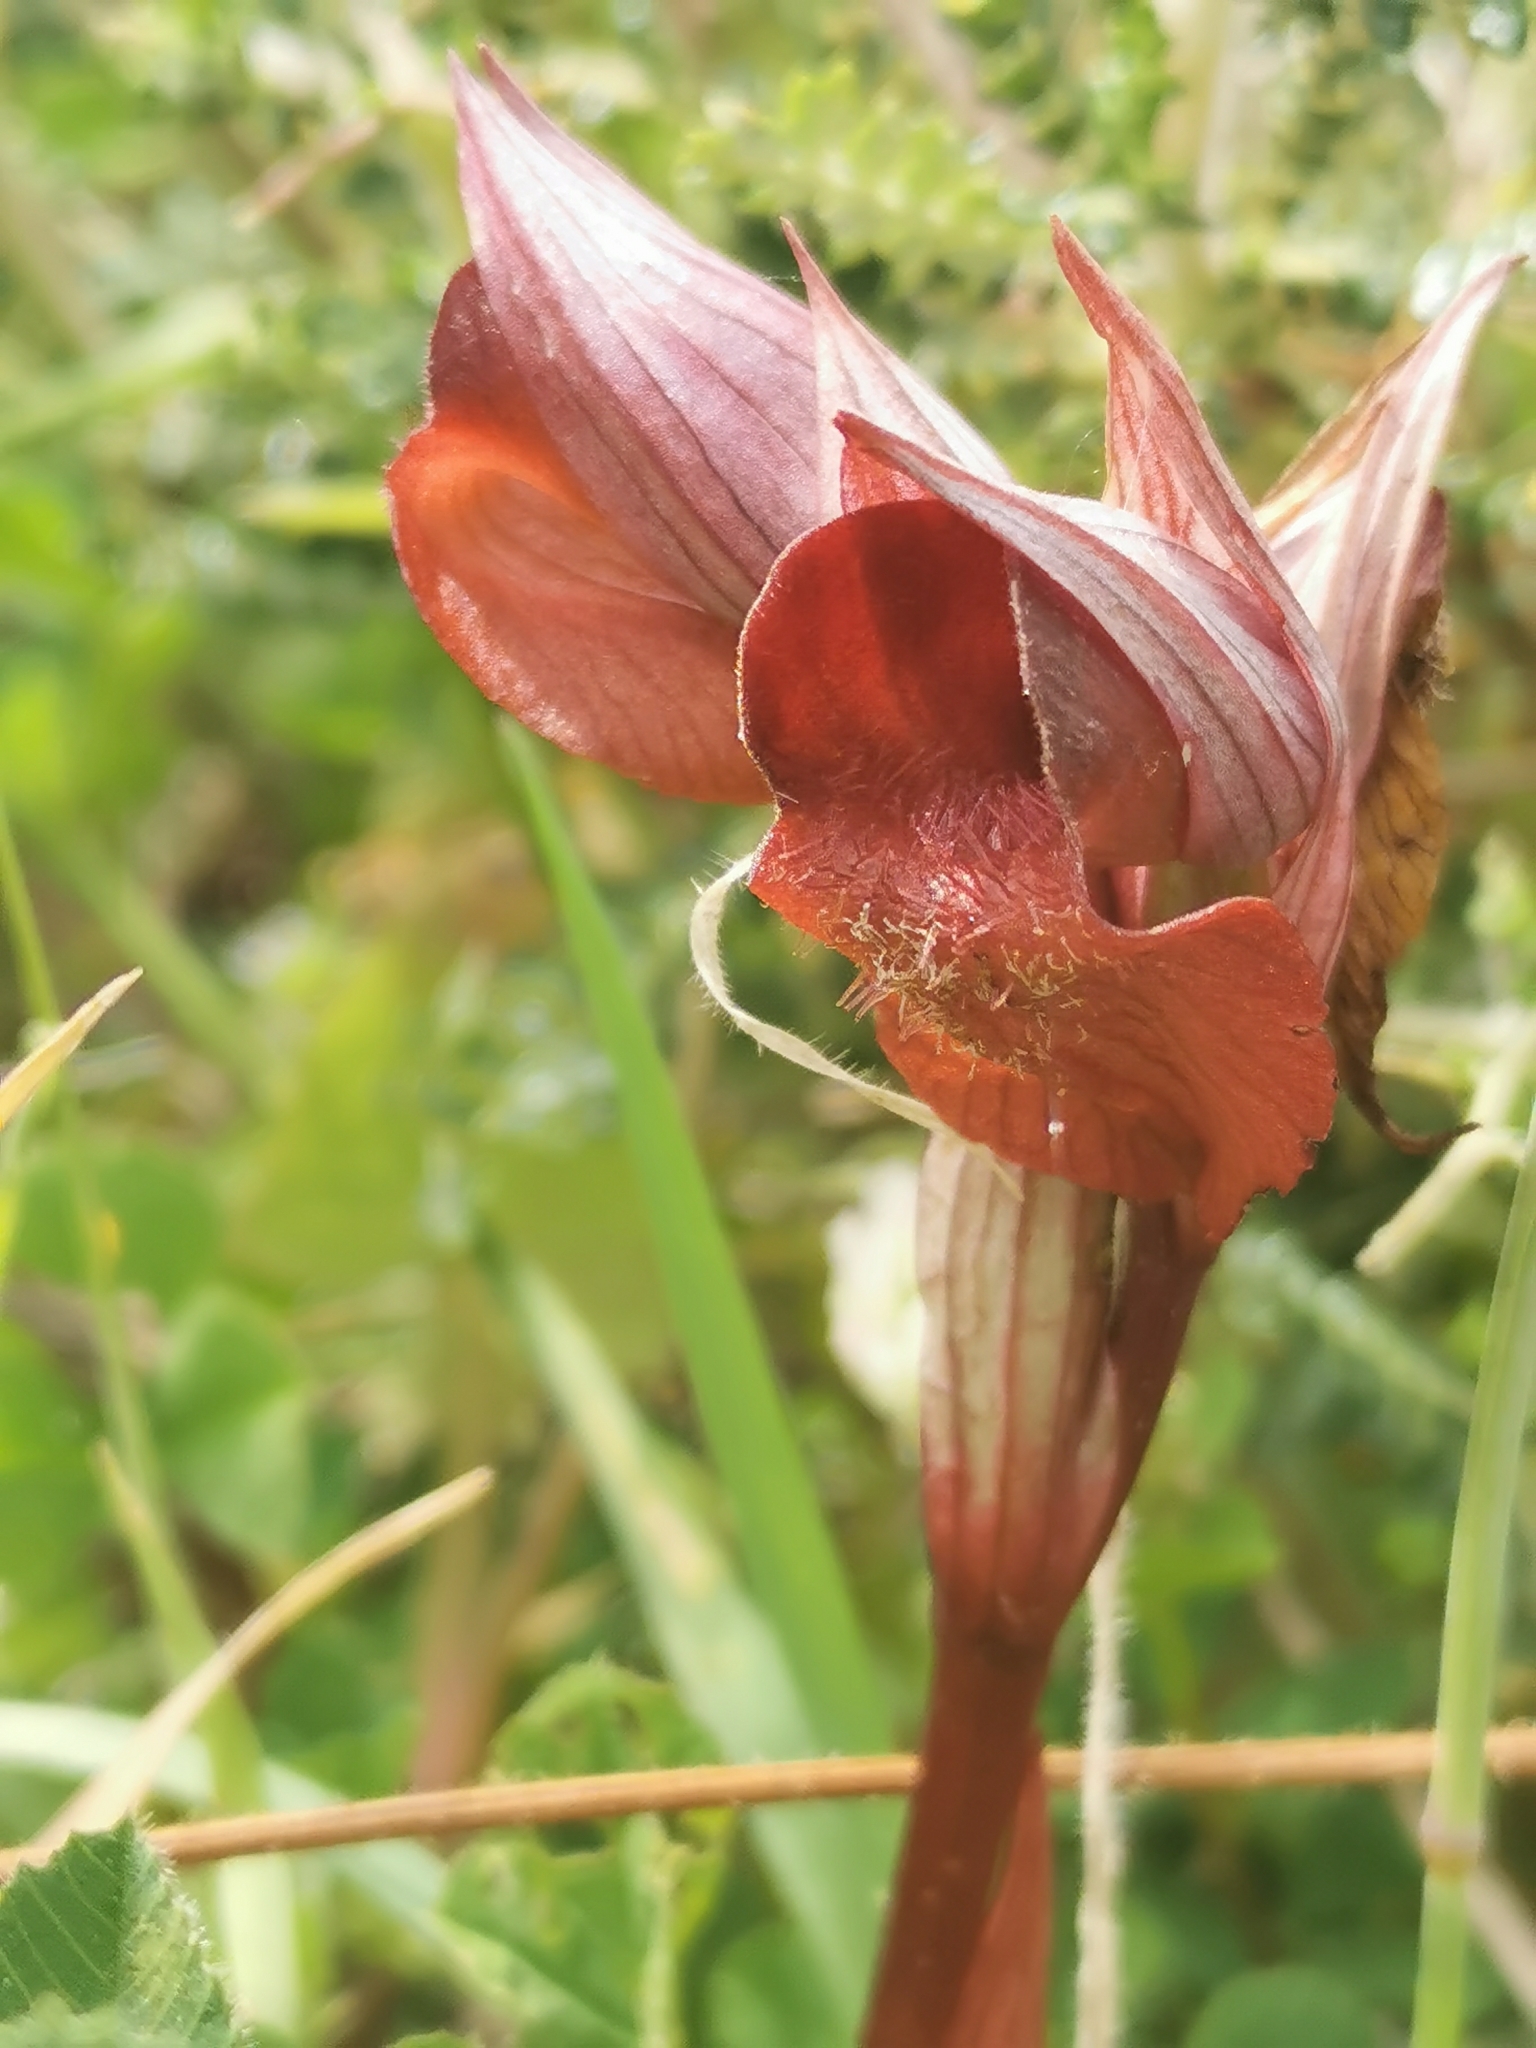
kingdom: Plantae
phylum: Tracheophyta
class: Liliopsida
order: Asparagales
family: Orchidaceae
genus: Serapias
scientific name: Serapias orientalis
